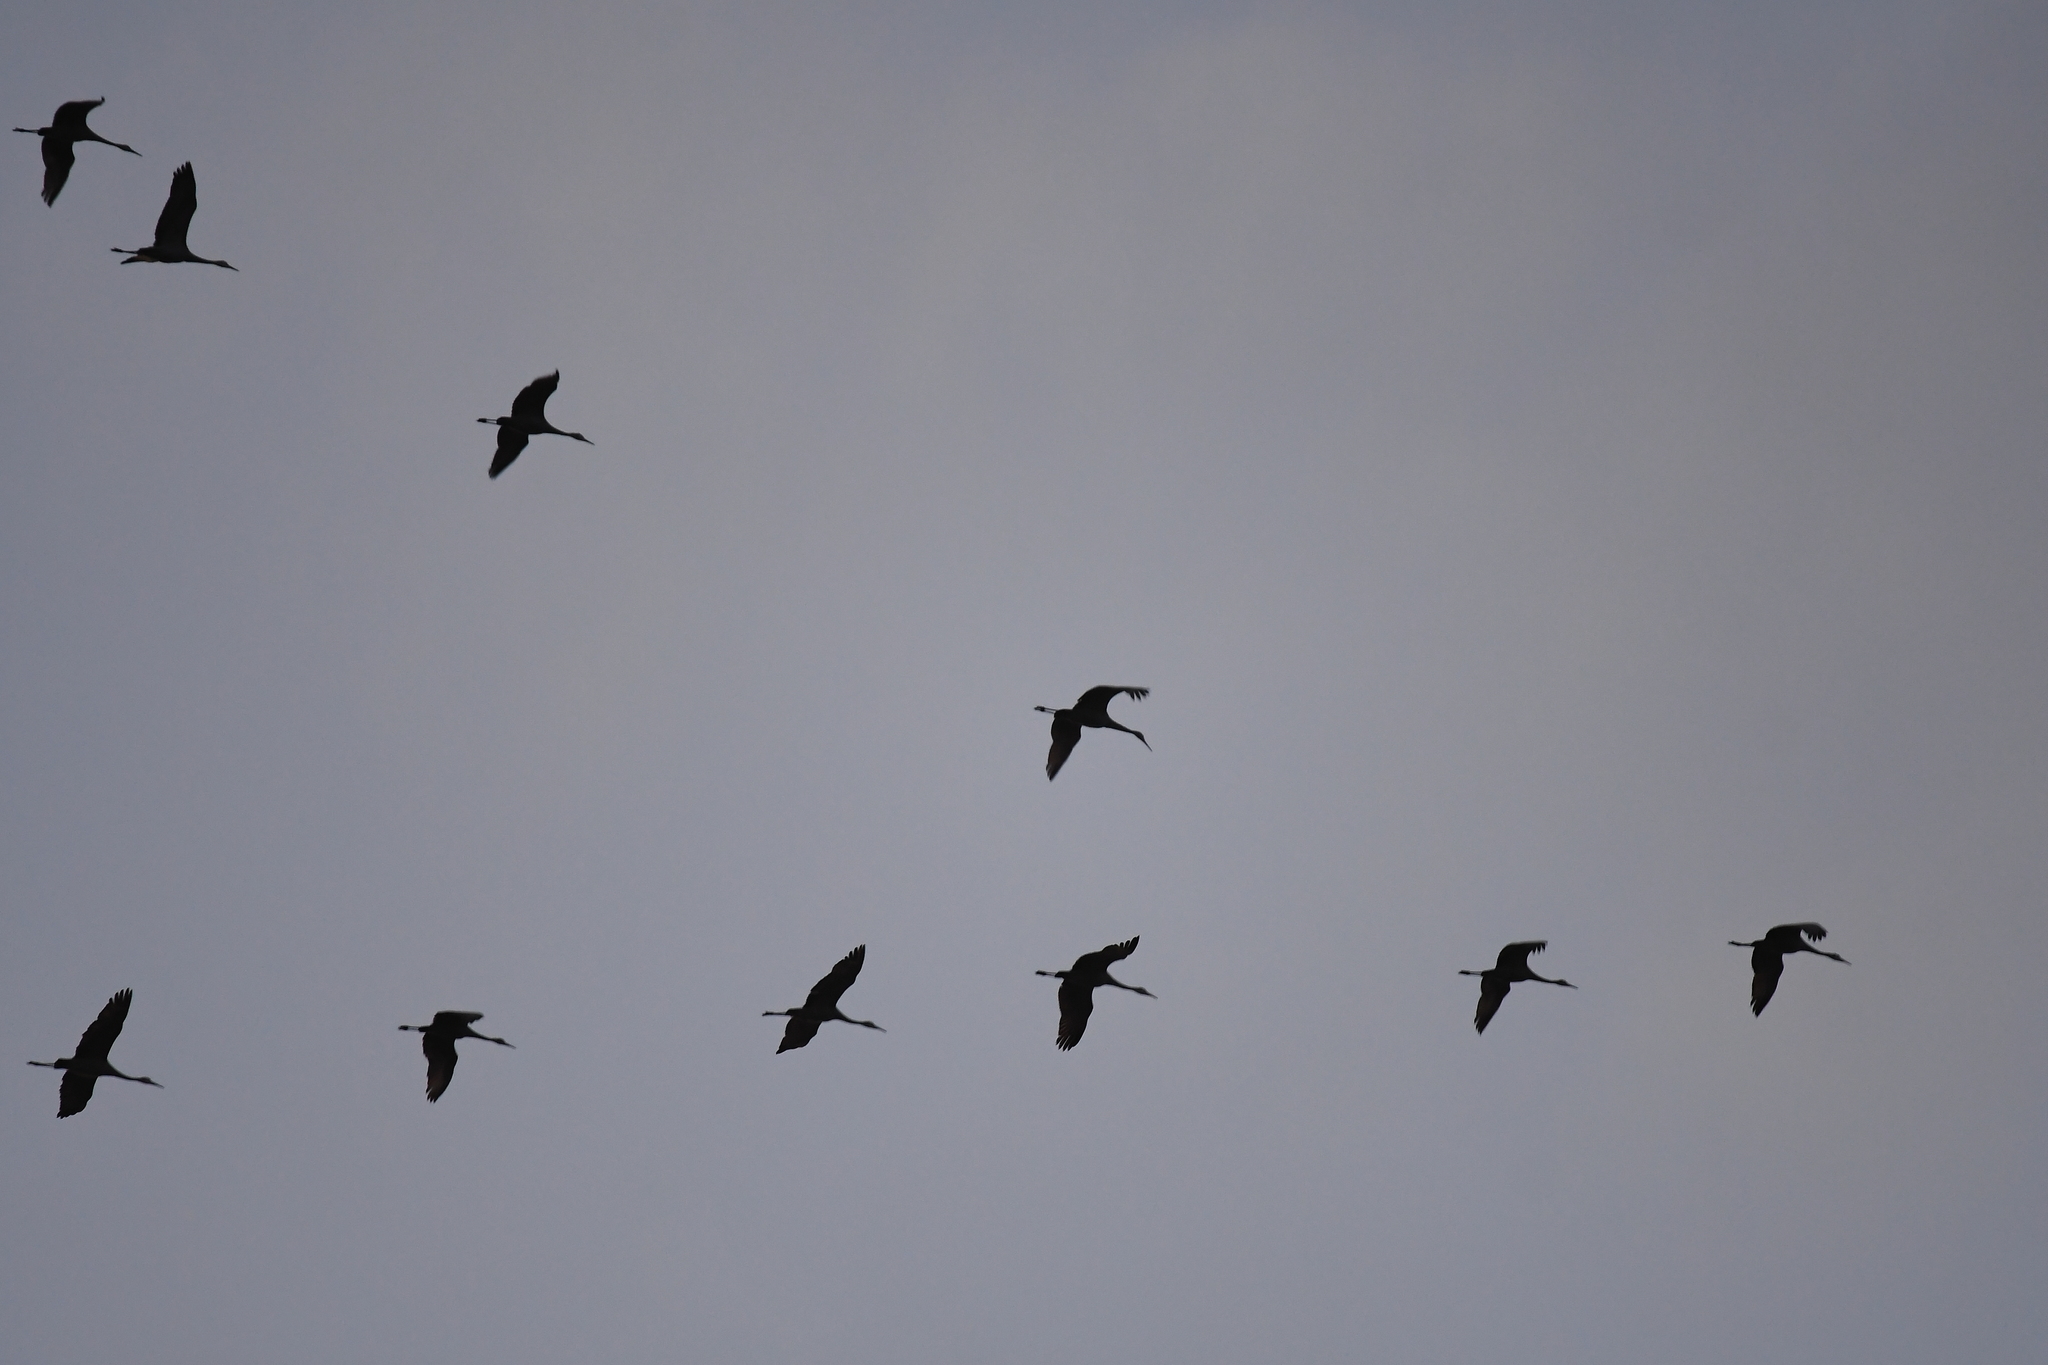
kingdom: Animalia
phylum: Chordata
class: Aves
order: Gruiformes
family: Gruidae
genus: Grus
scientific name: Grus canadensis
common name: Sandhill crane
